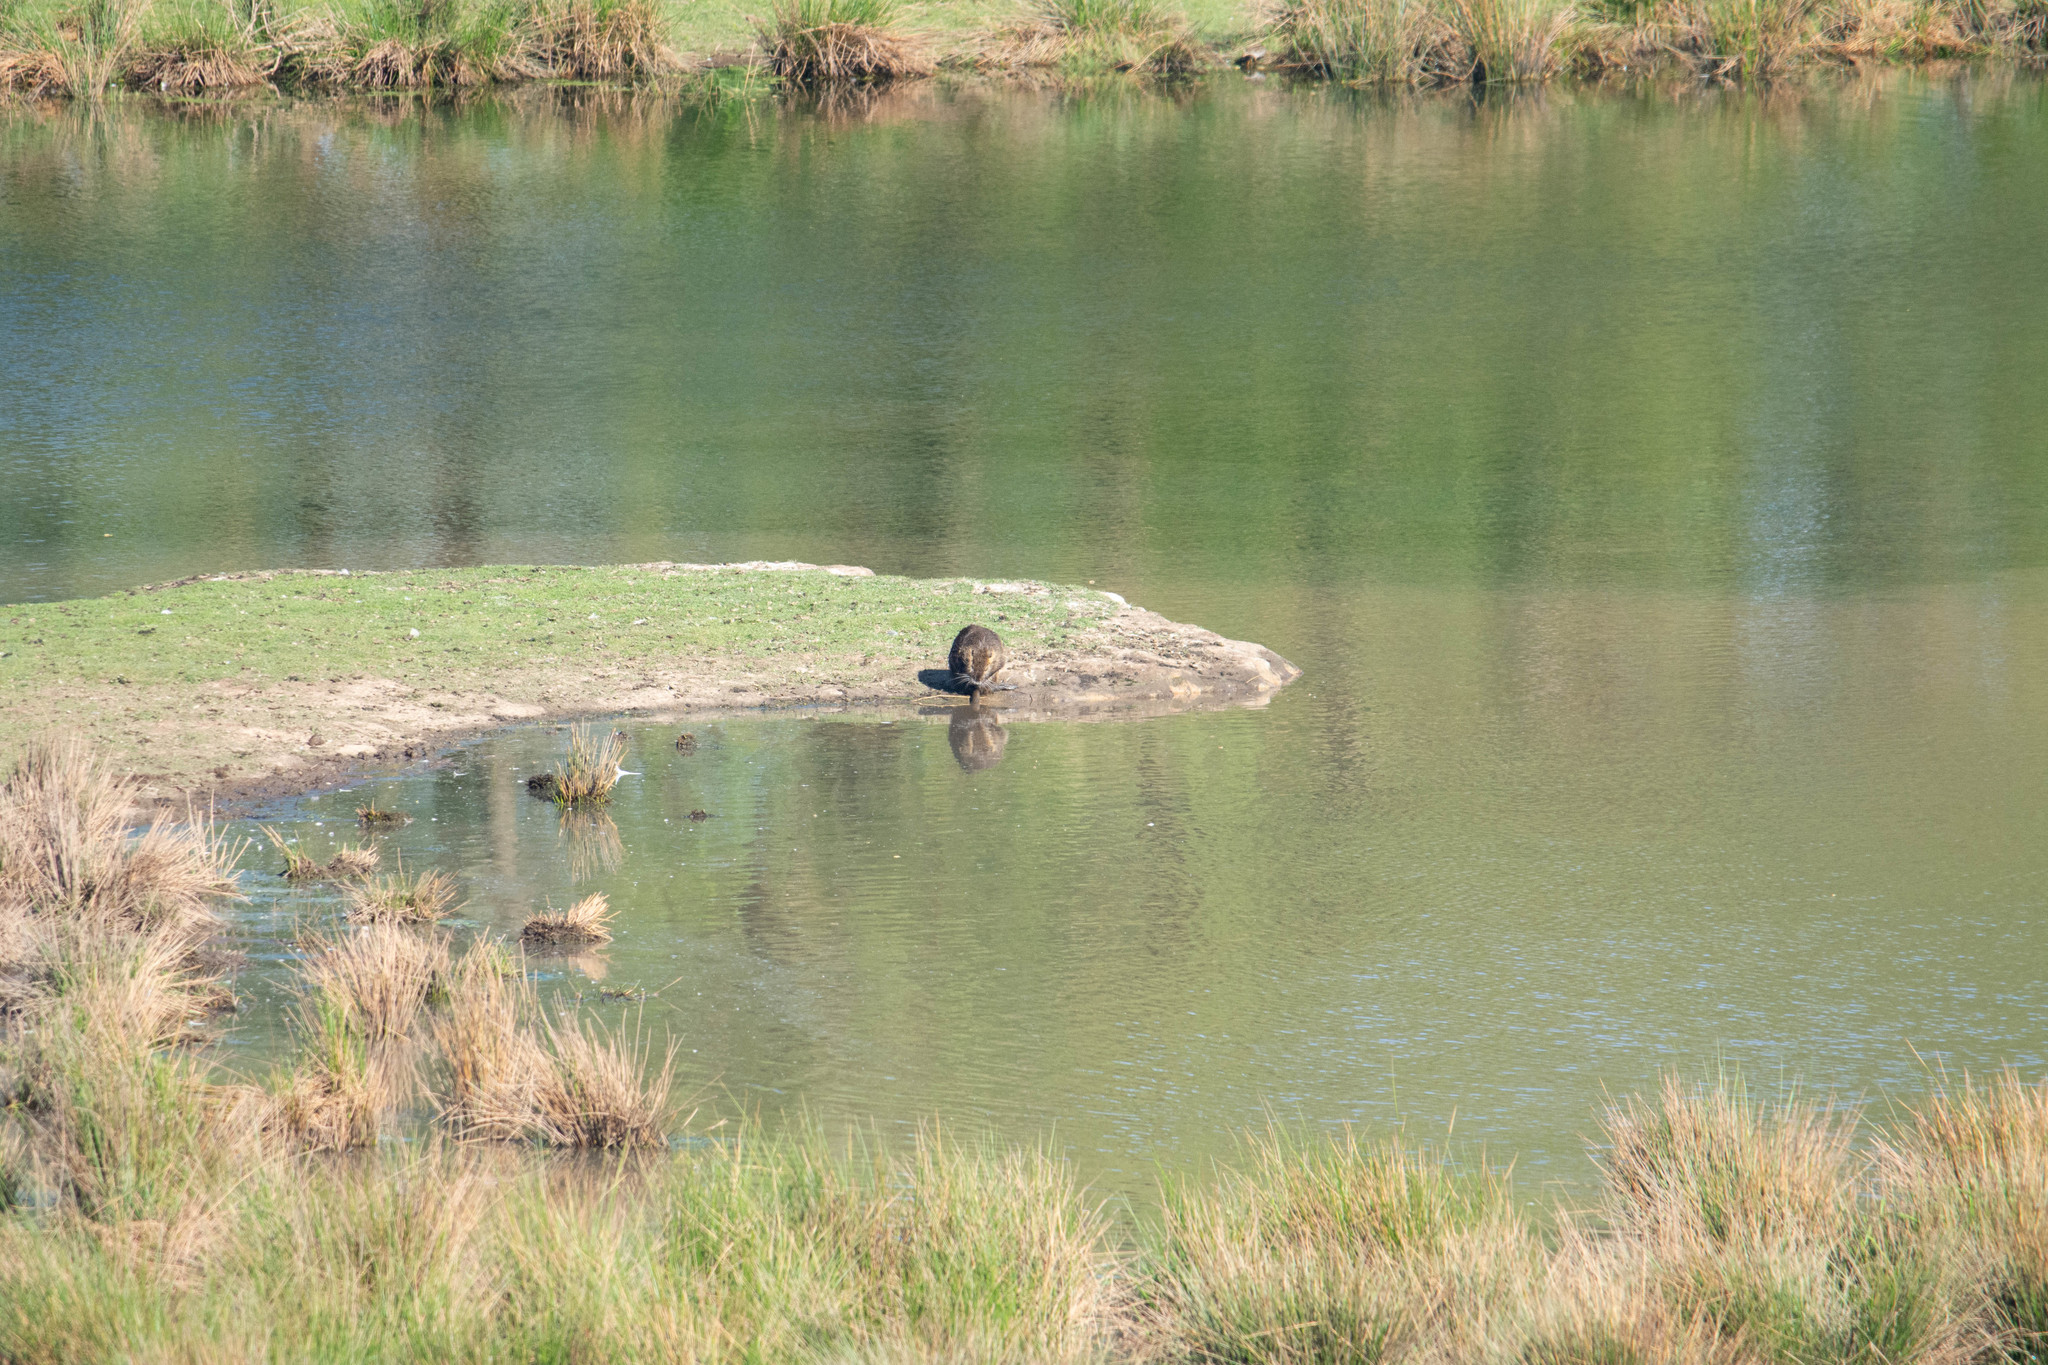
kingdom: Animalia
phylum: Chordata
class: Mammalia
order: Rodentia
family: Myocastoridae
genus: Myocastor
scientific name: Myocastor coypus
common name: Coypu
